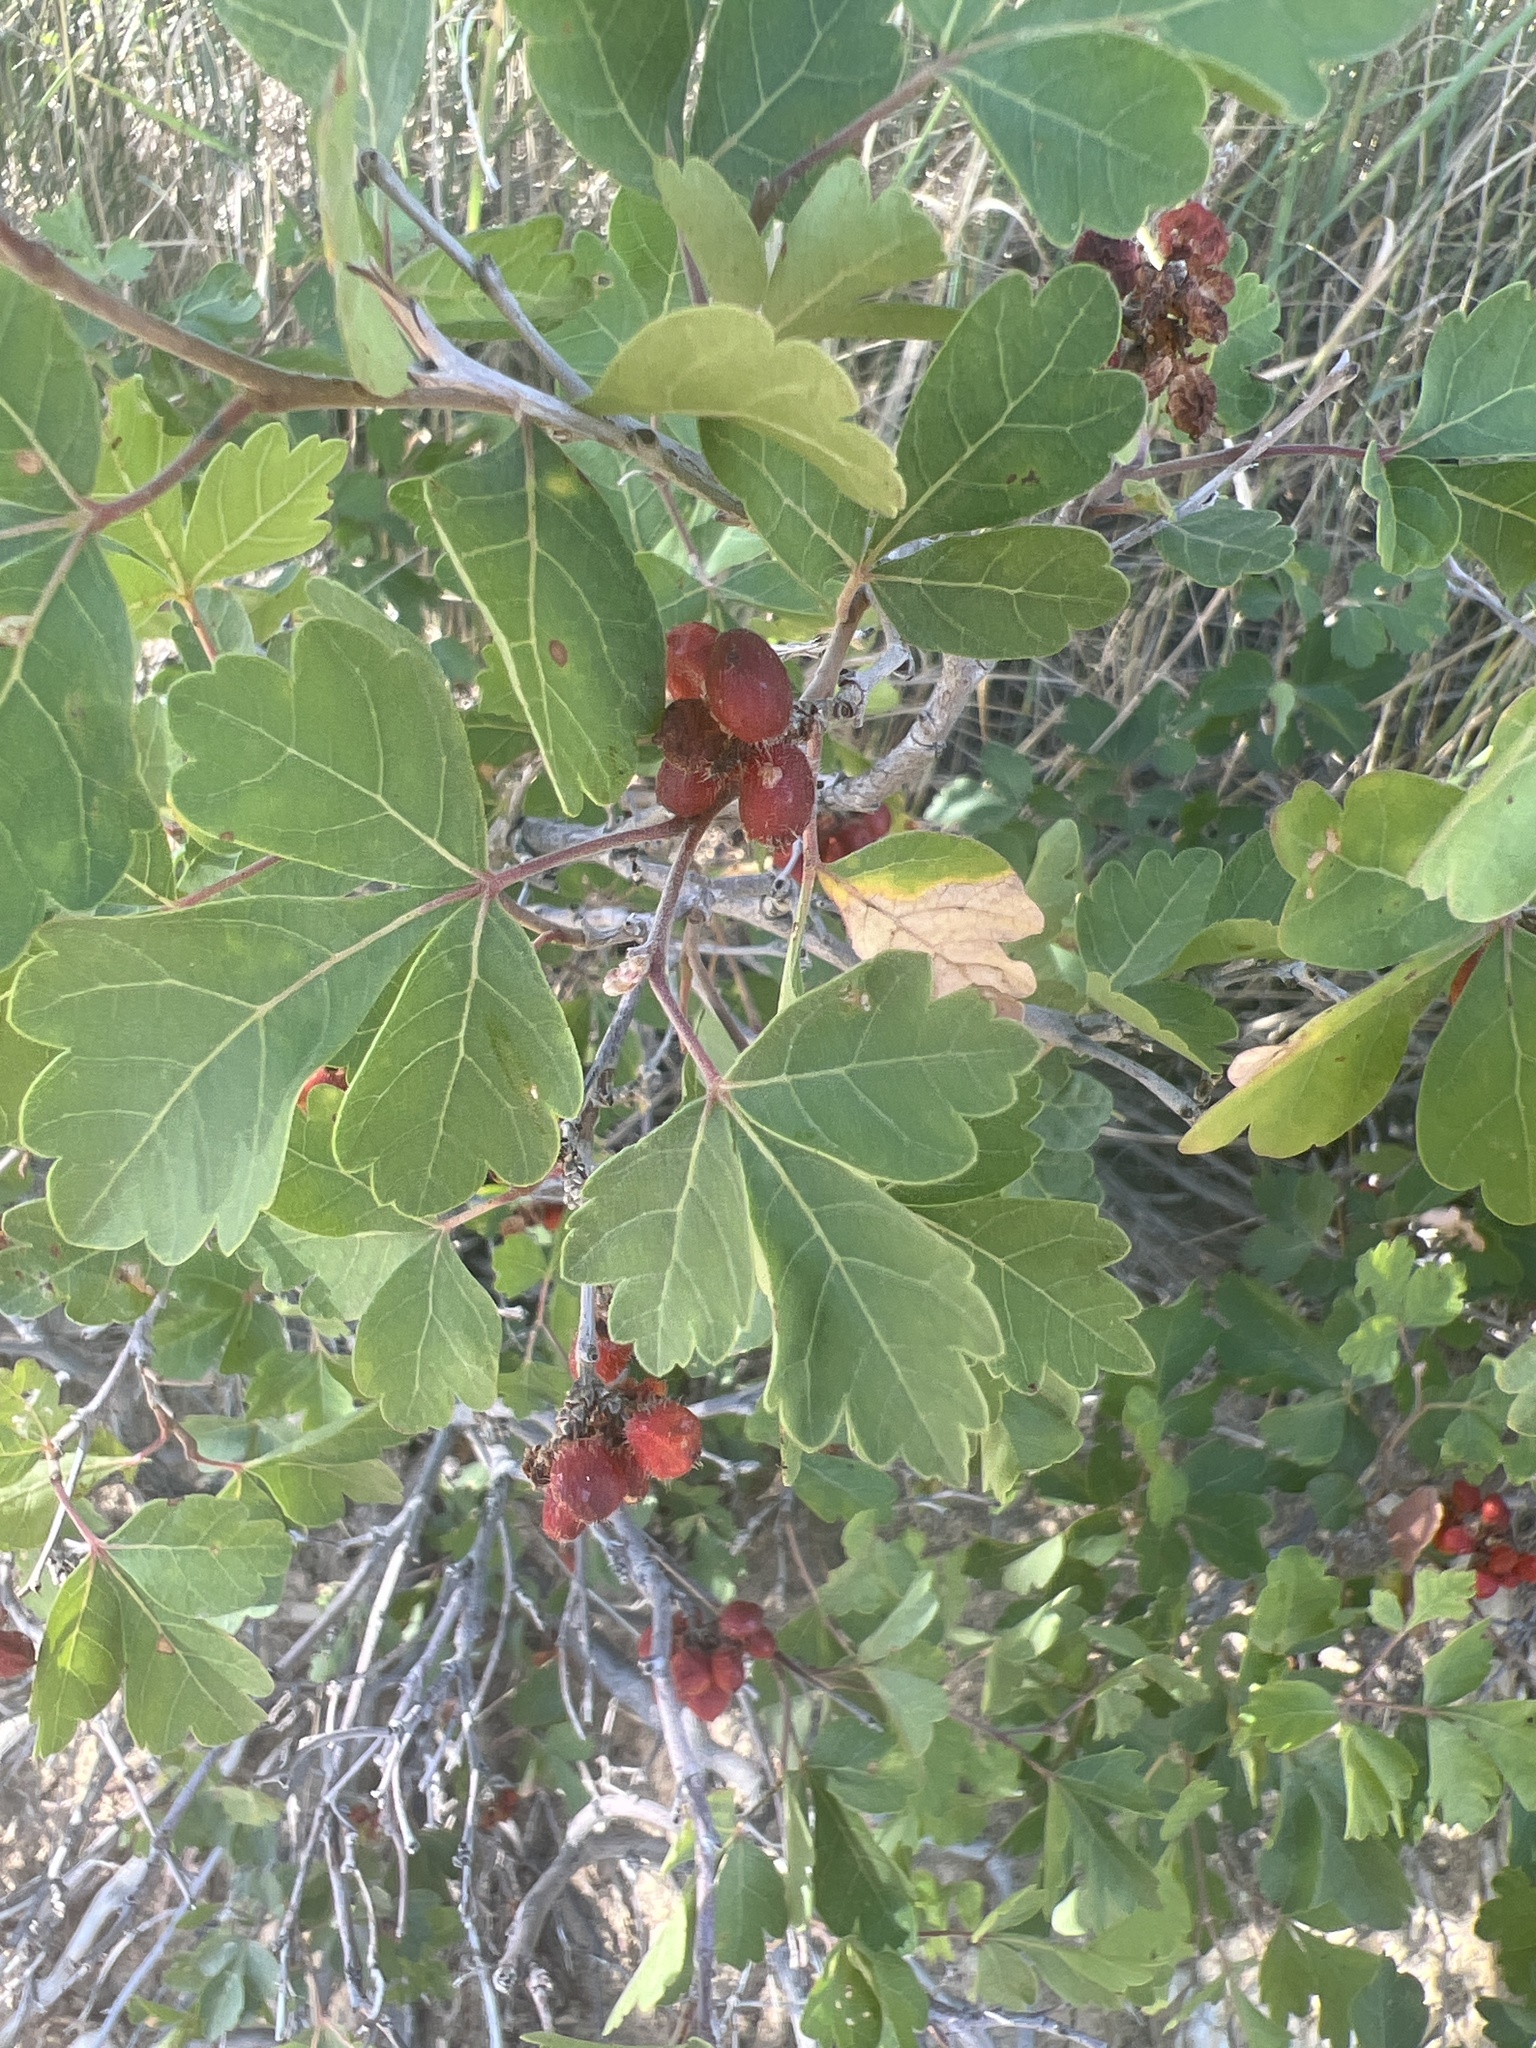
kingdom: Plantae
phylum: Tracheophyta
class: Magnoliopsida
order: Sapindales
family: Anacardiaceae
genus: Rhus
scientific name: Rhus trilobata
